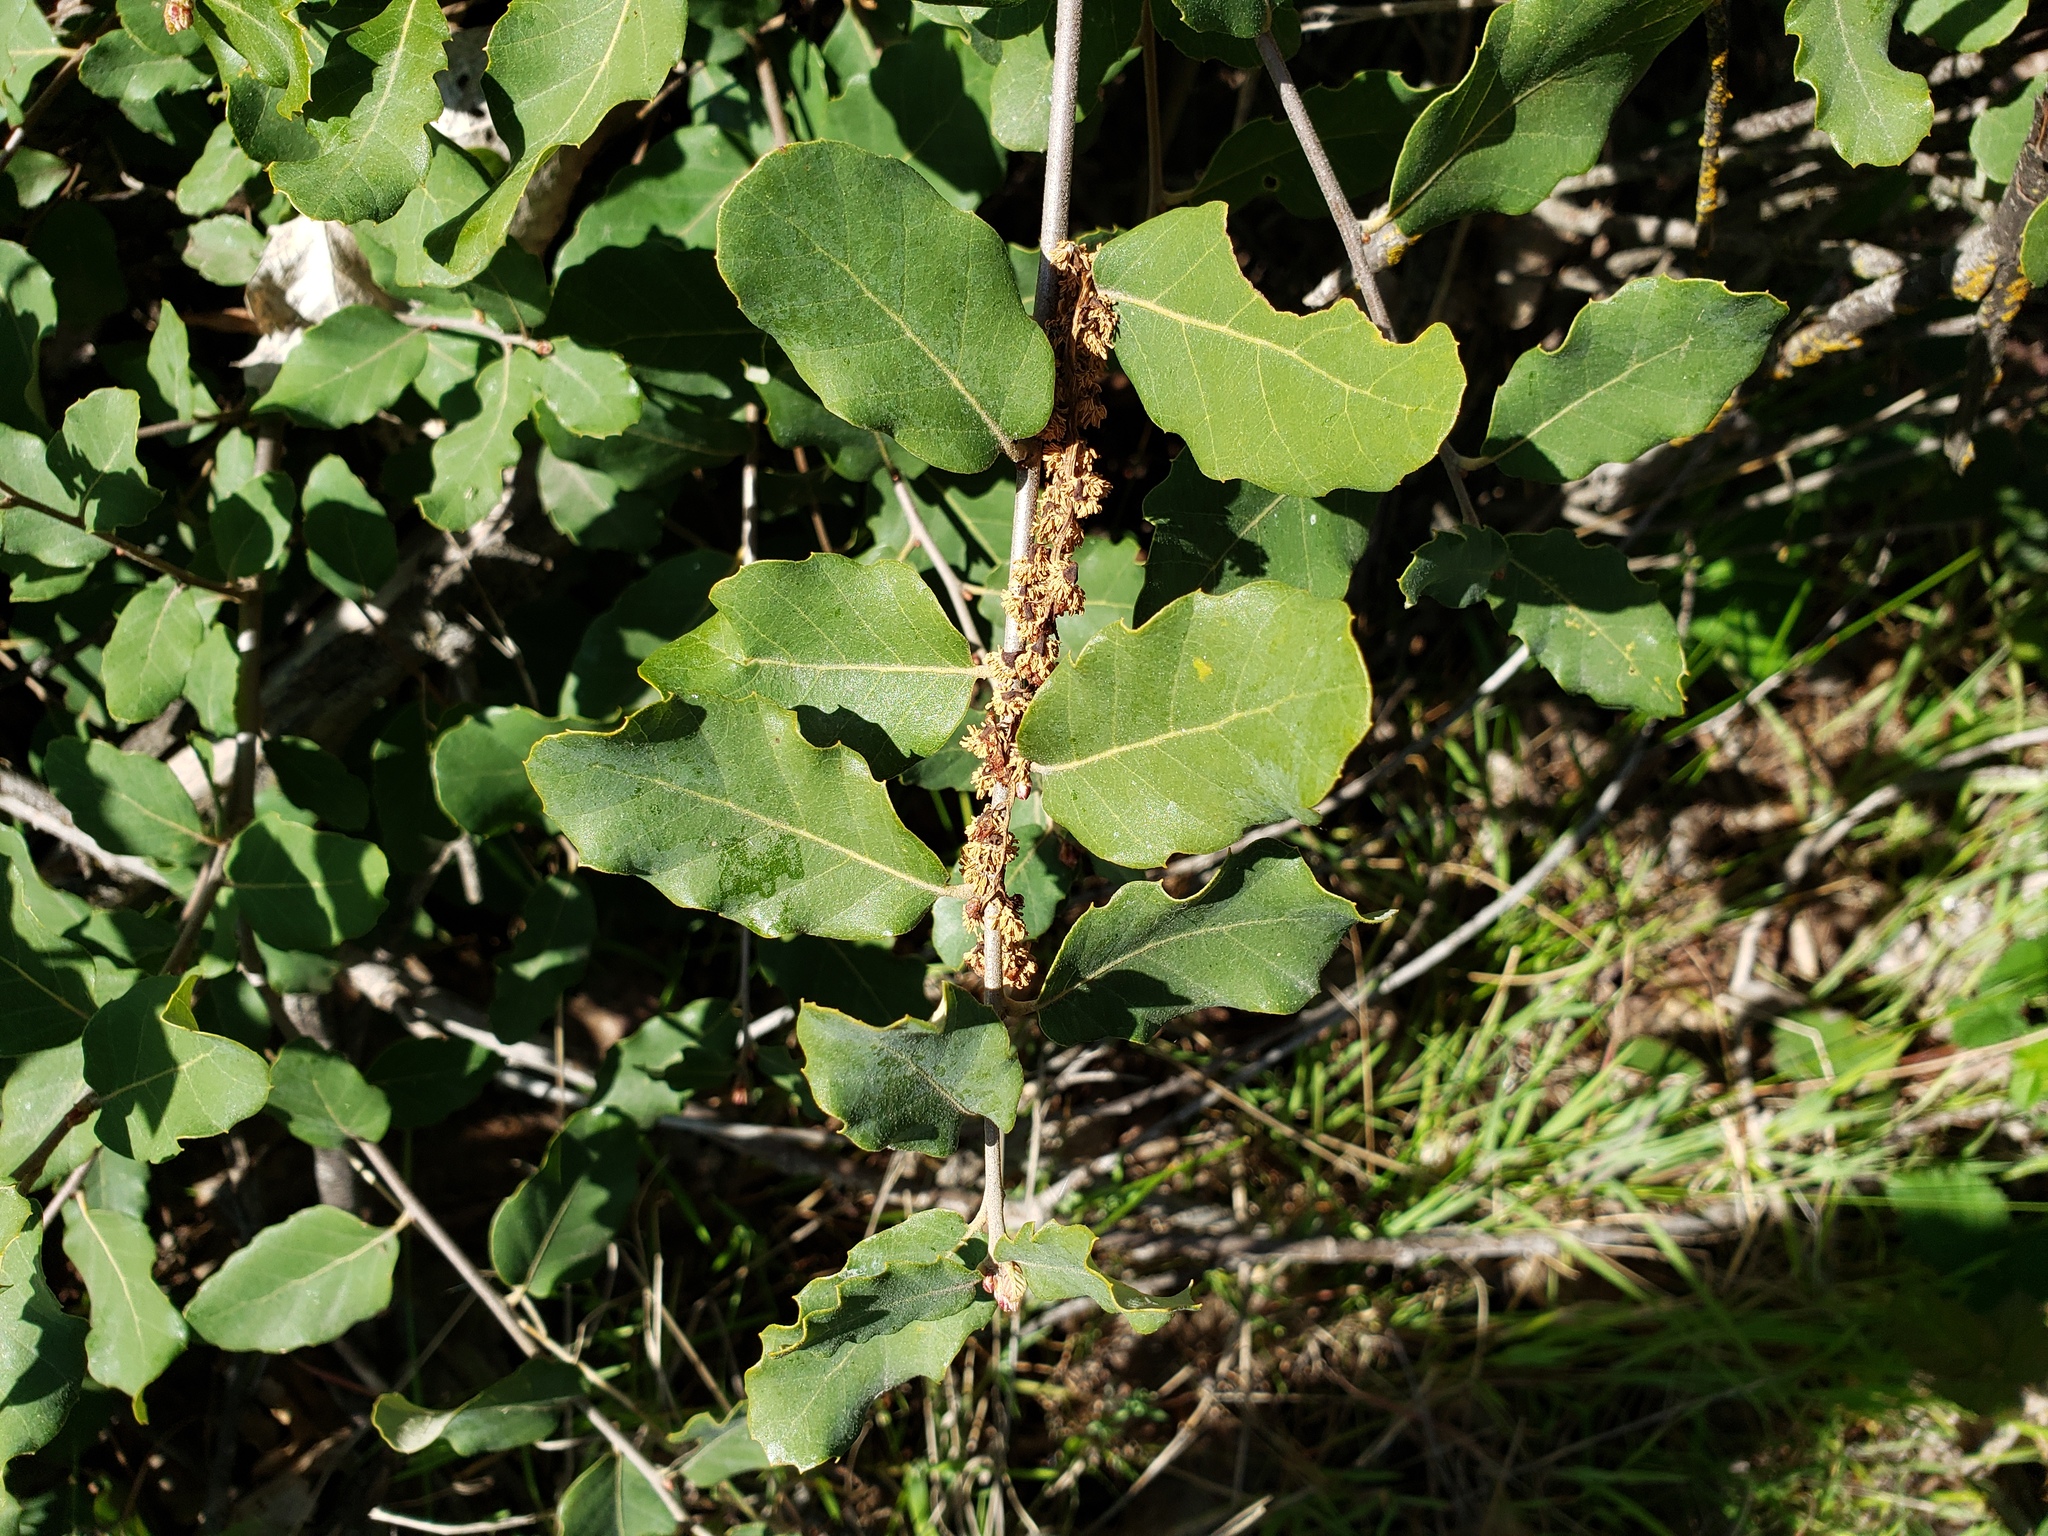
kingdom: Plantae
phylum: Tracheophyta
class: Magnoliopsida
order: Fagales
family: Fagaceae
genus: Quercus
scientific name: Quercus suber
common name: Cork oak
